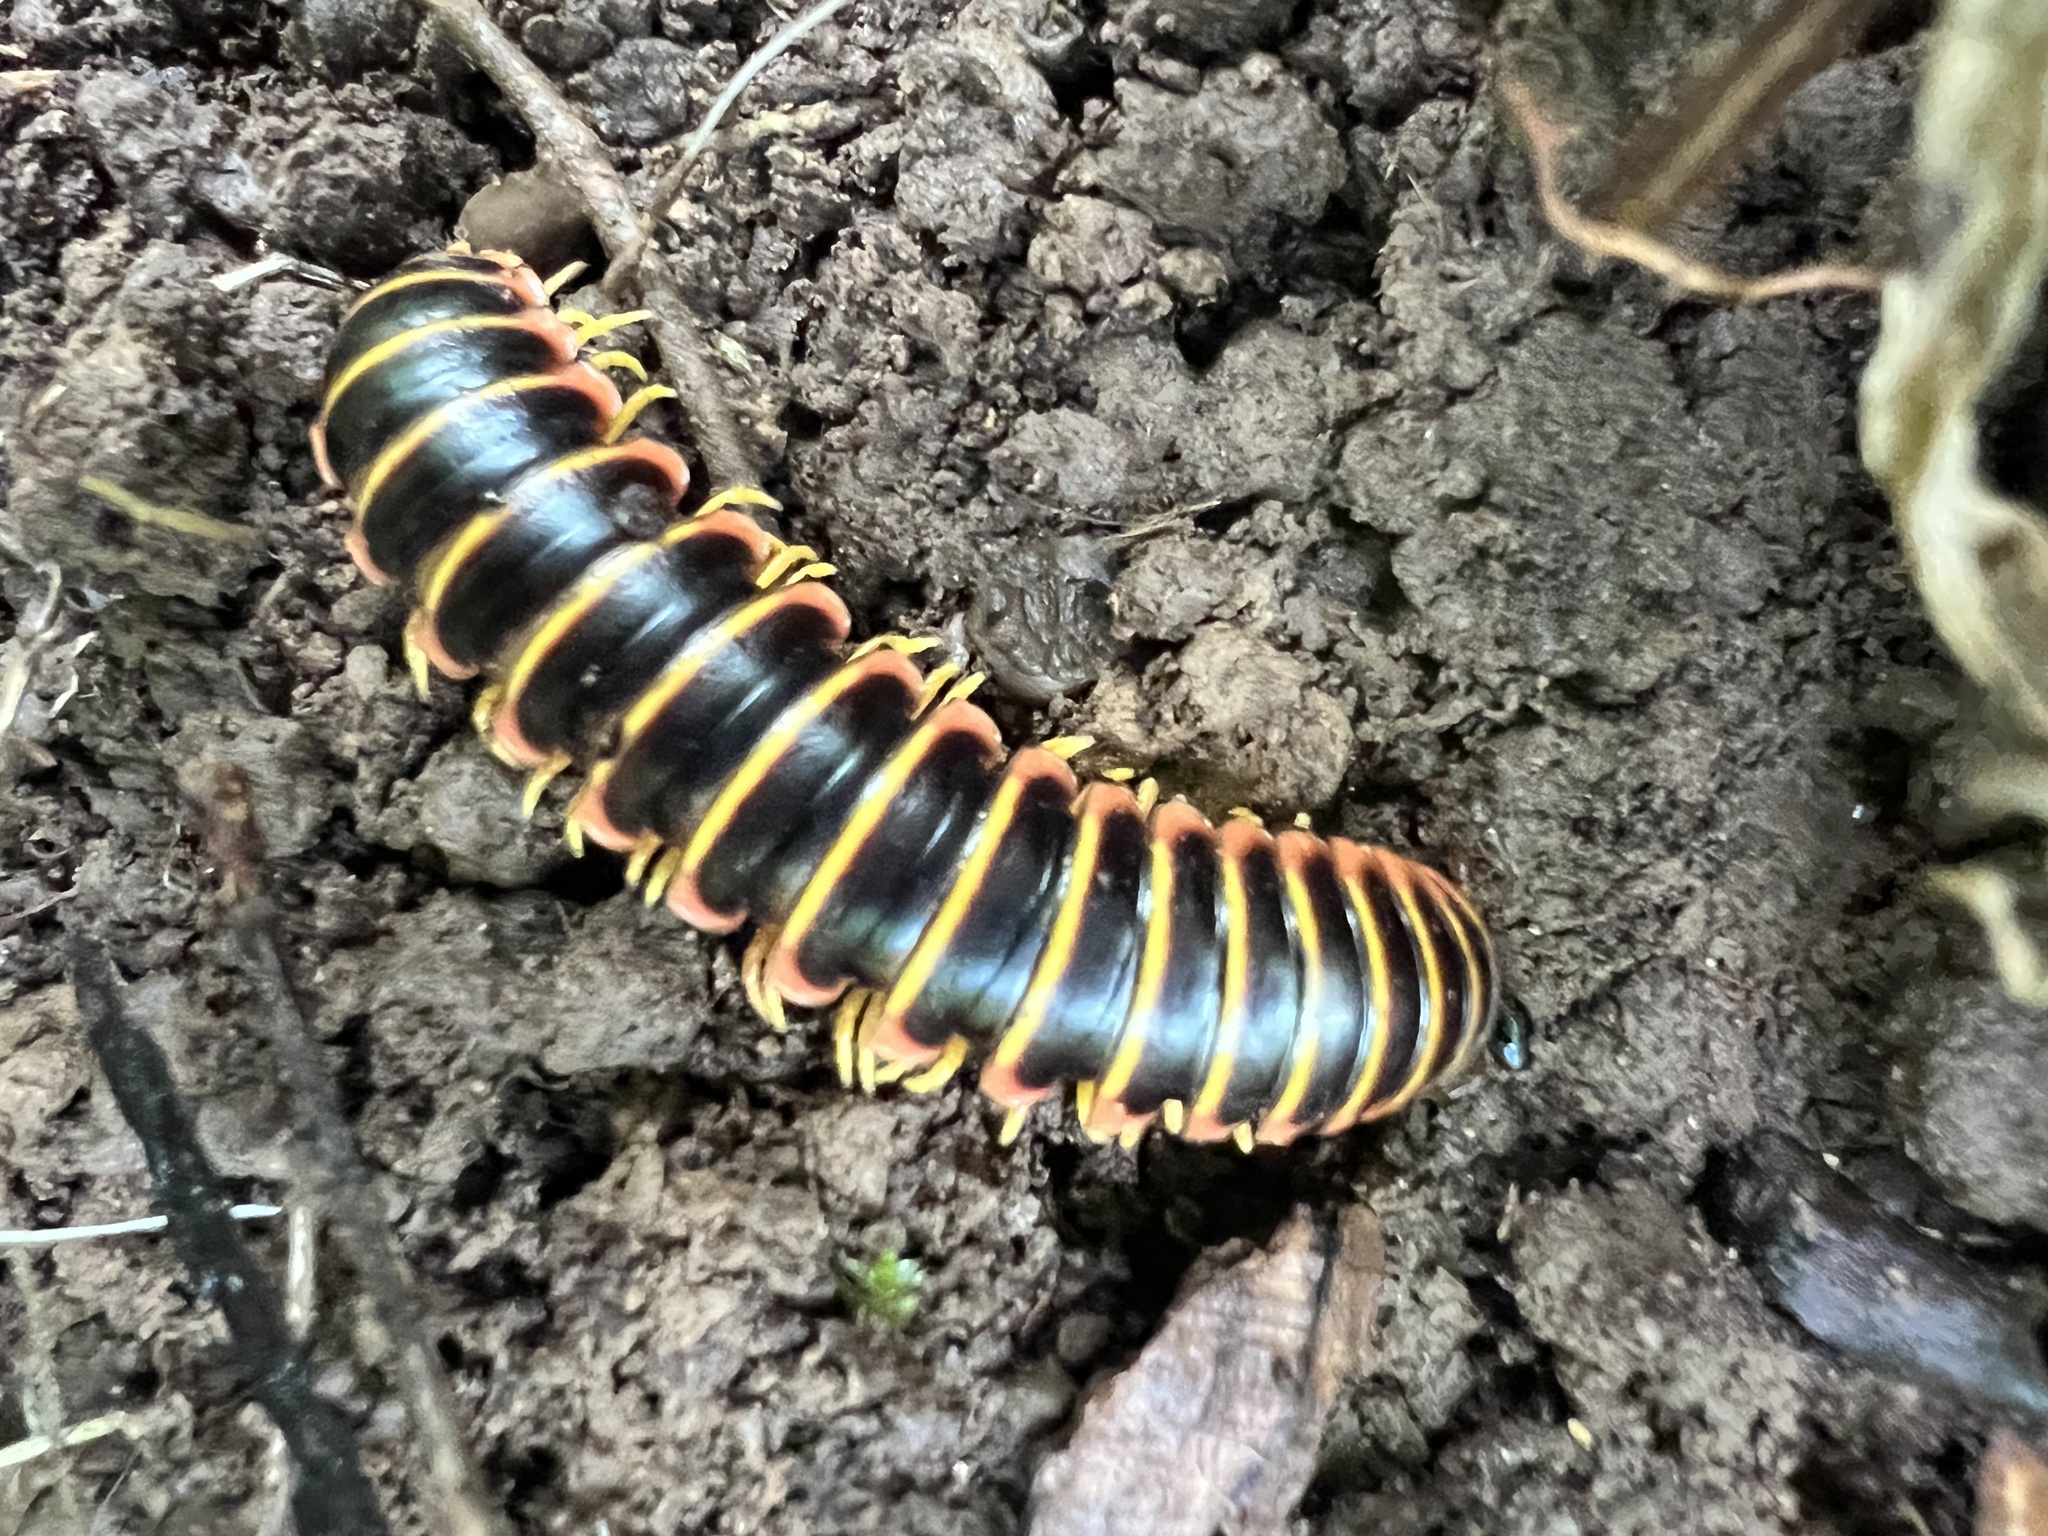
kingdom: Animalia
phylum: Arthropoda
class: Diplopoda
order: Polydesmida
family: Xystodesmidae
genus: Apheloria
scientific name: Apheloria virginiensis
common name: Black-and-gold flat millipede
